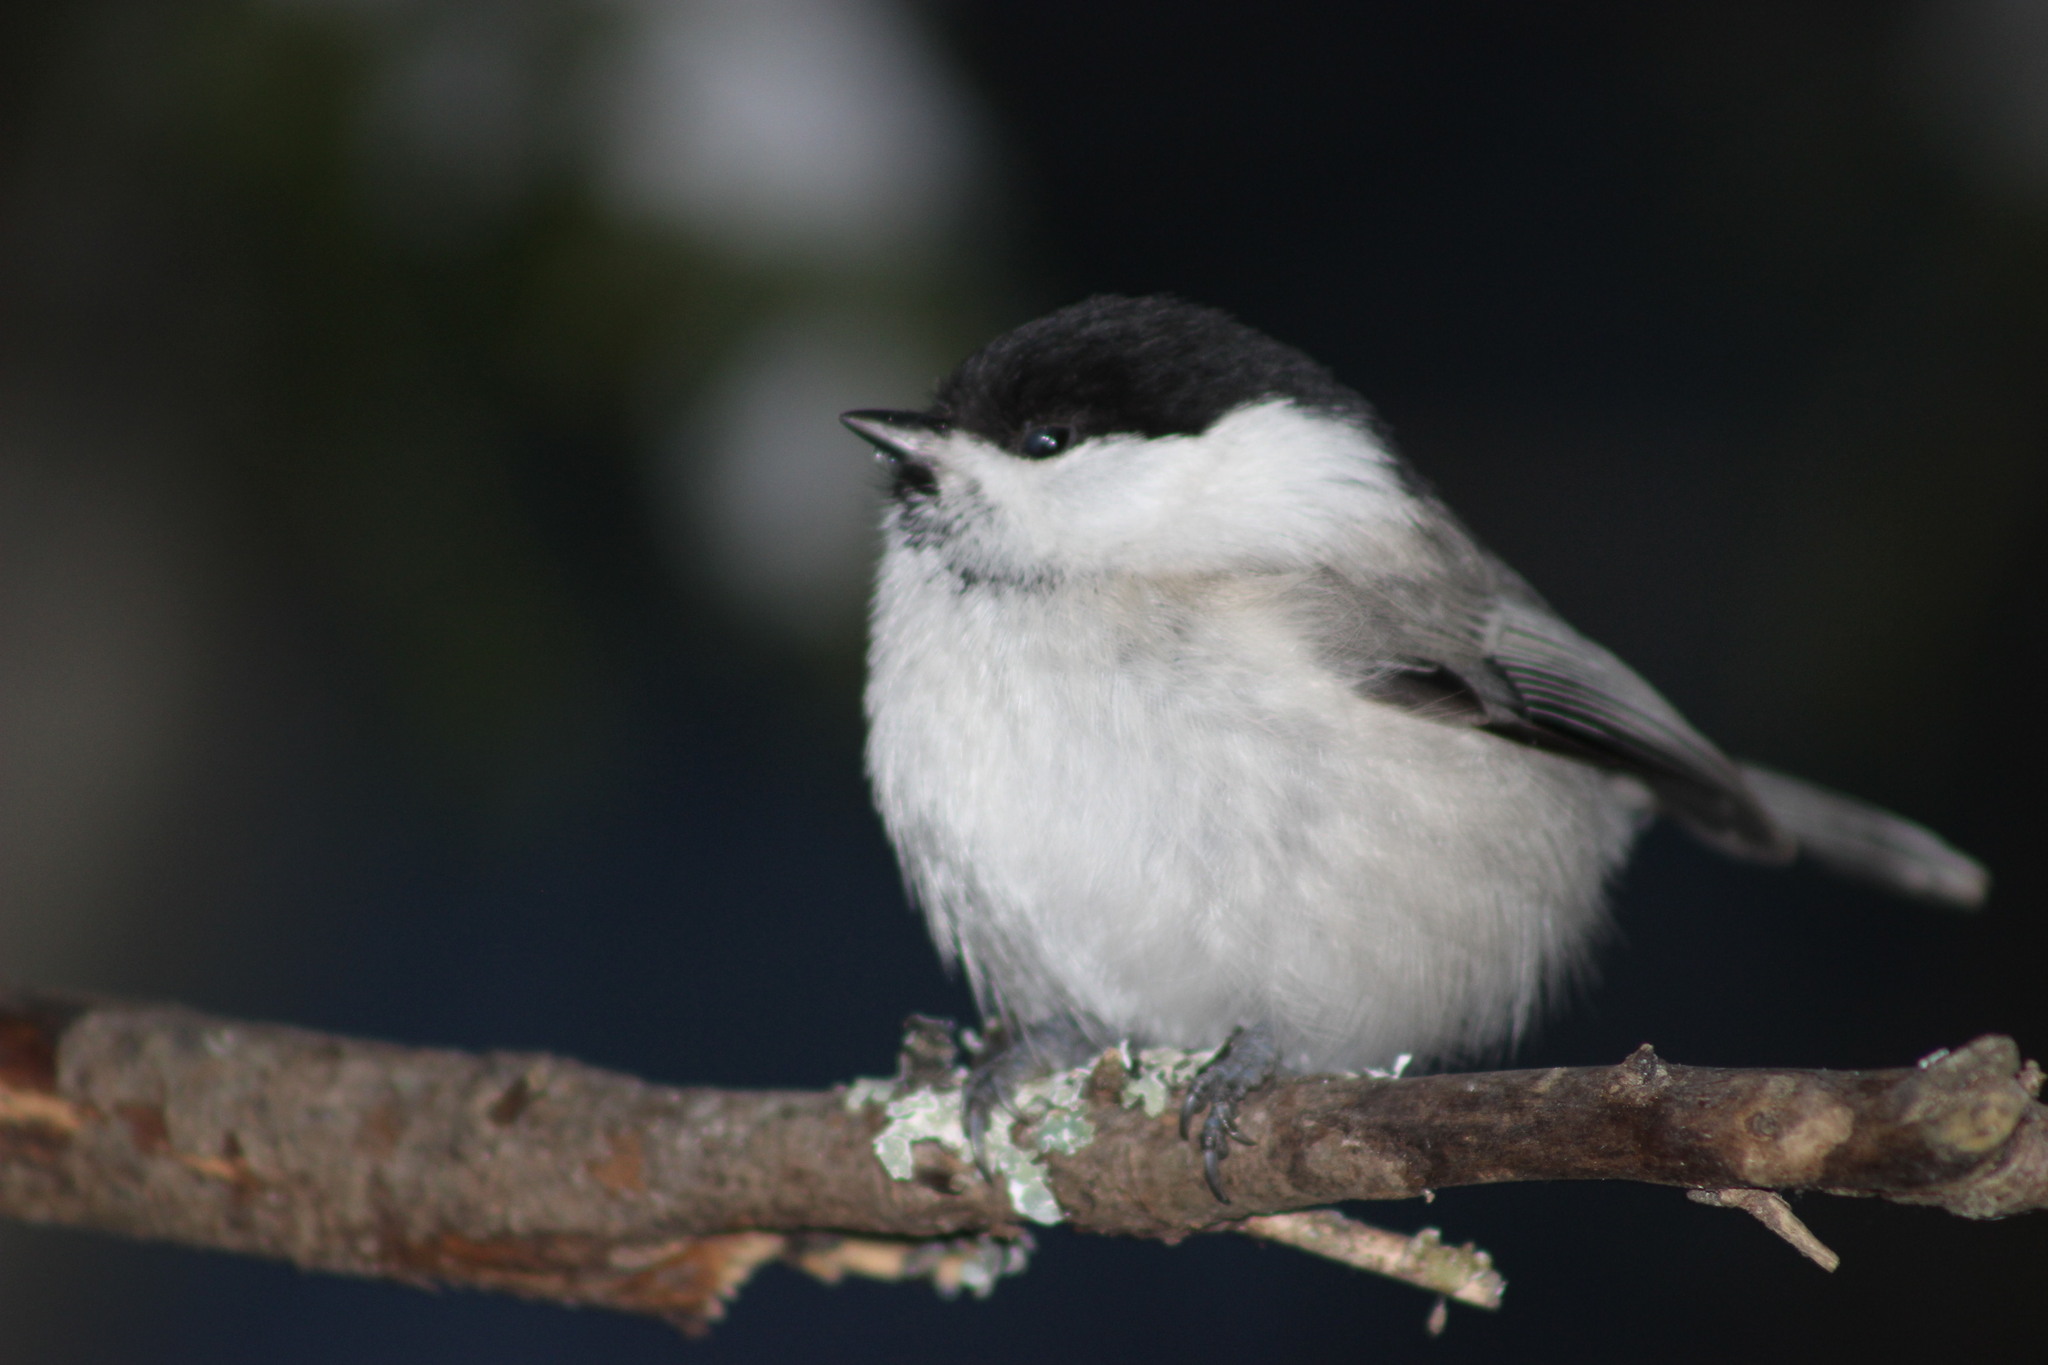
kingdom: Animalia
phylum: Chordata
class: Aves
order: Passeriformes
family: Paridae
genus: Poecile
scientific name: Poecile montanus
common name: Willow tit
